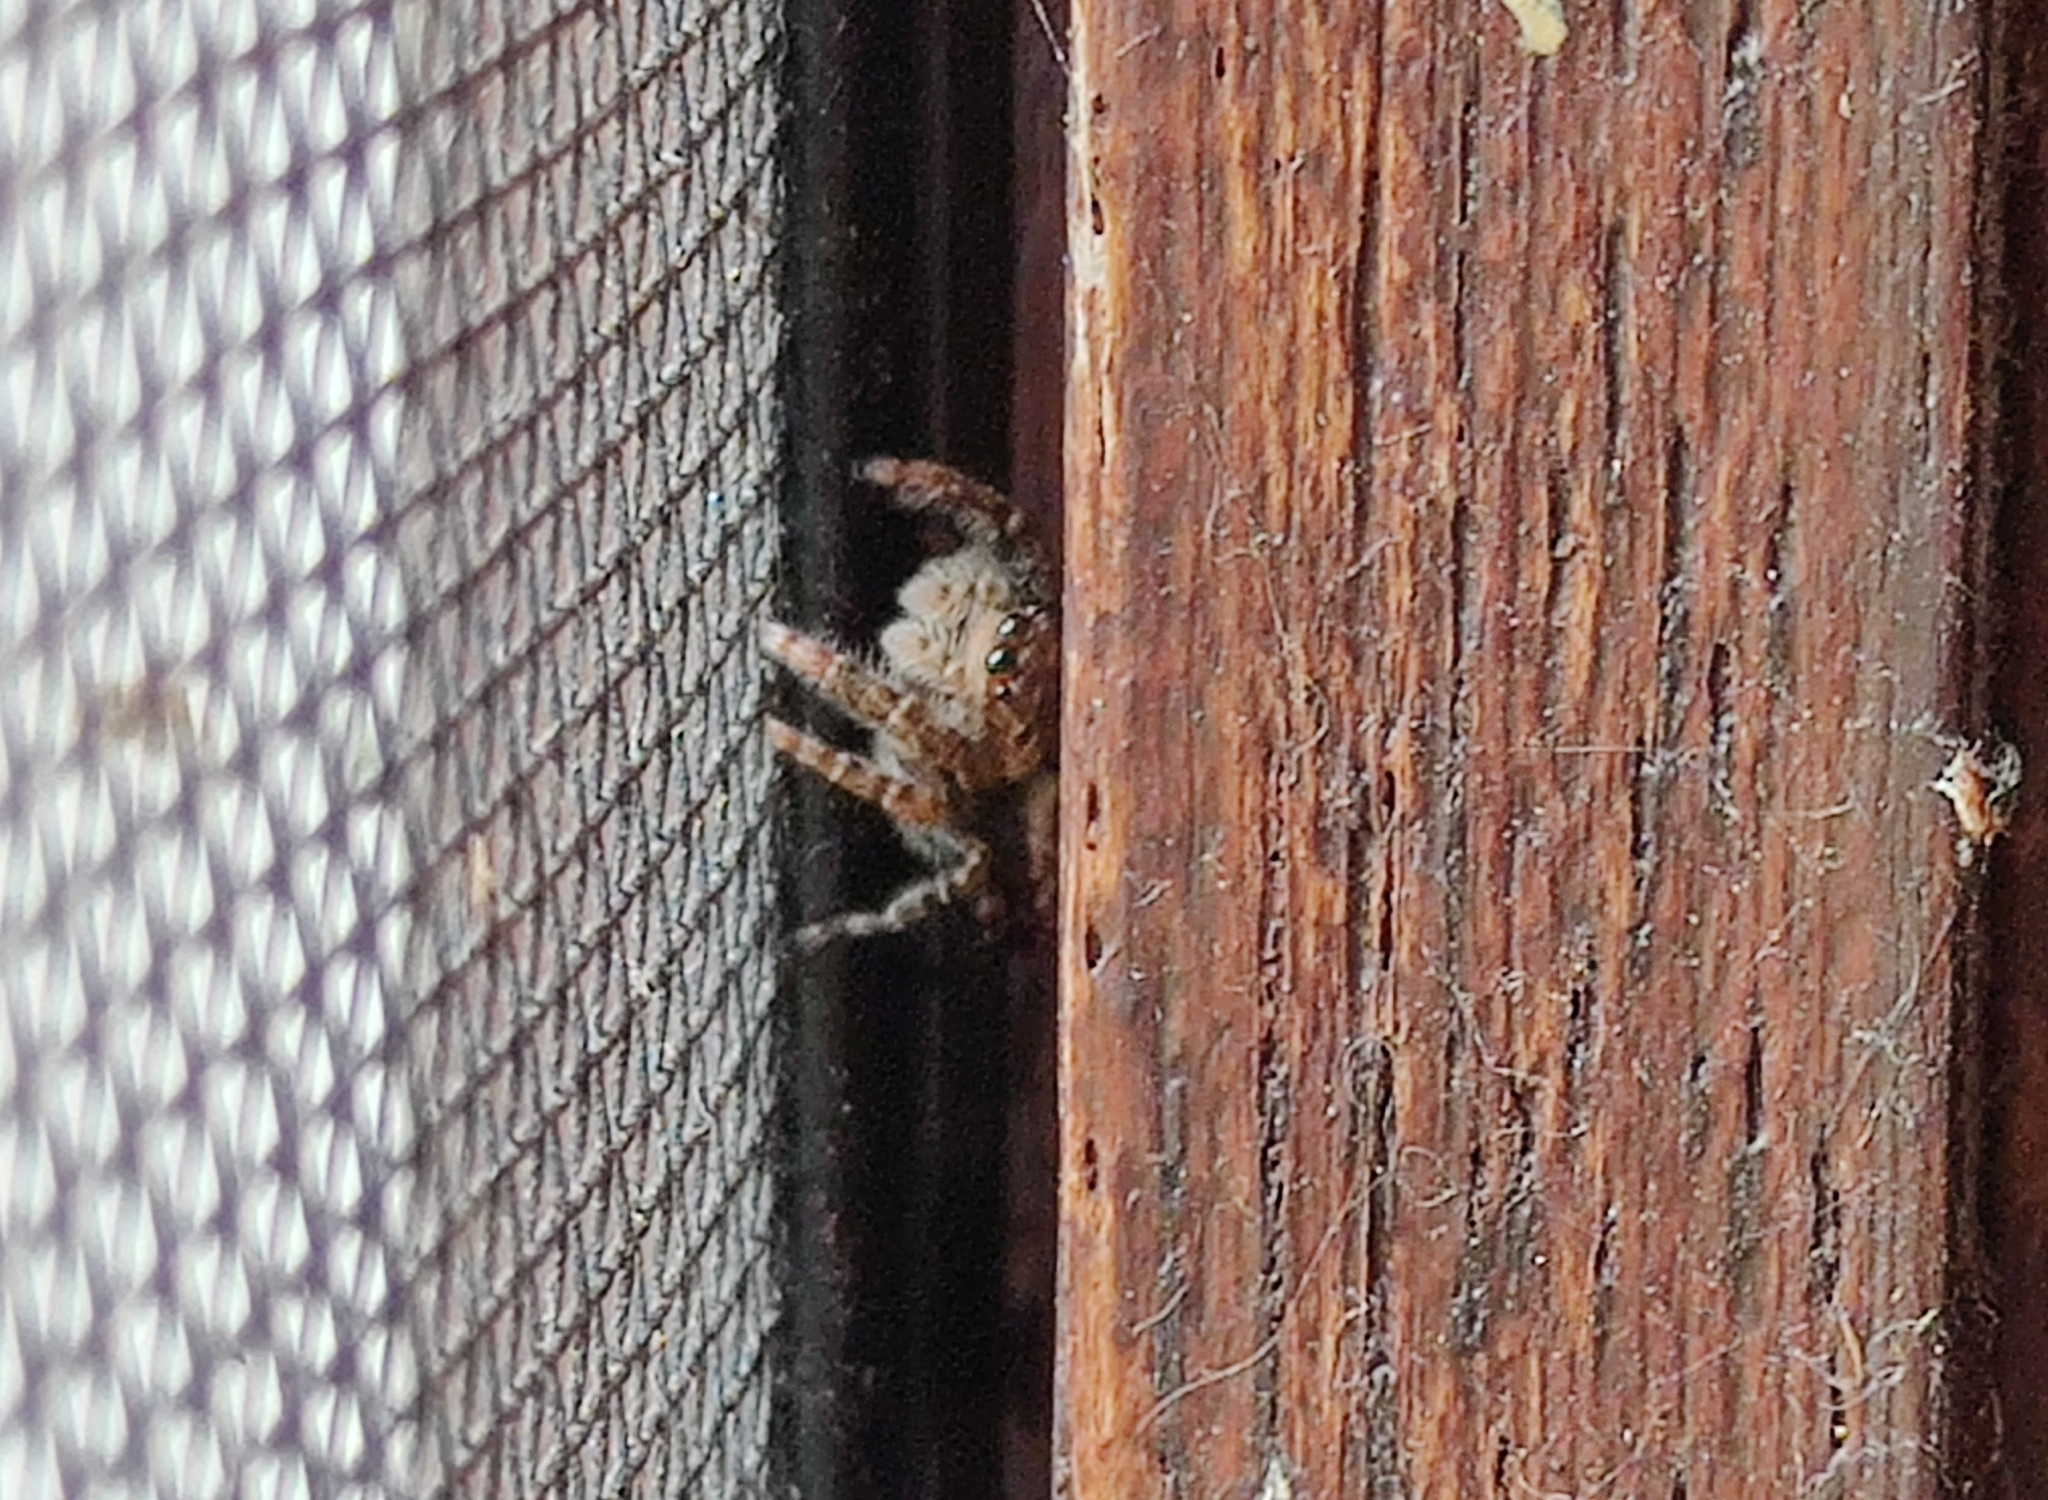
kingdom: Animalia
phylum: Arthropoda
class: Arachnida
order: Araneae
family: Salticidae
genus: Marpissa
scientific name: Marpissa muscosa
